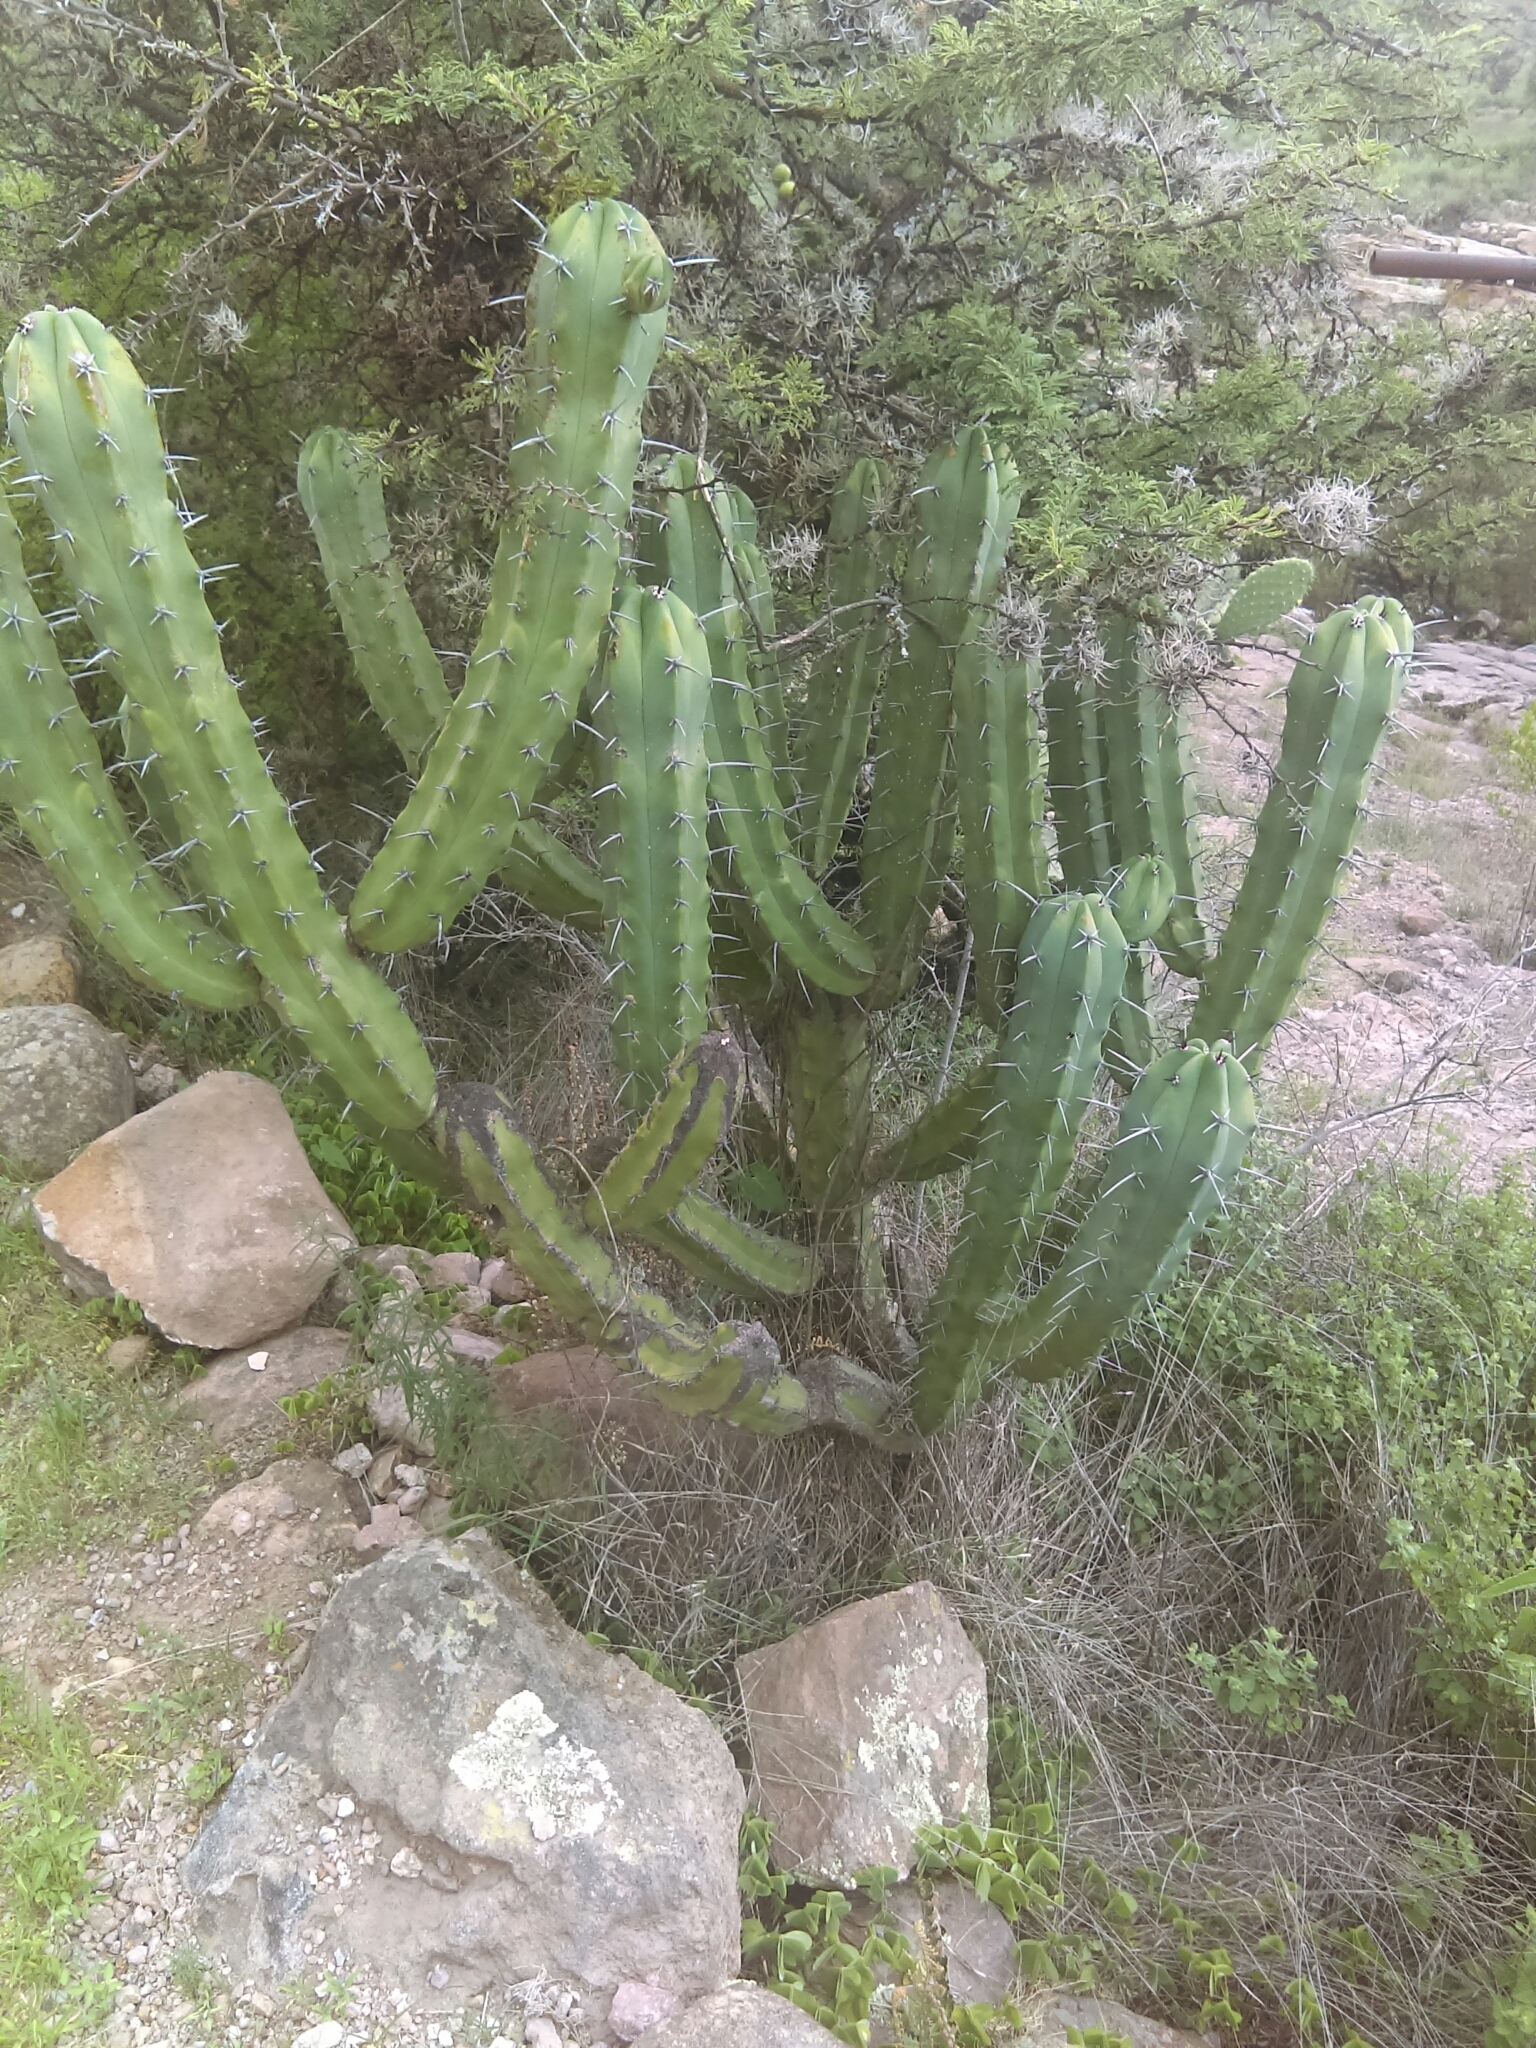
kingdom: Plantae
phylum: Tracheophyta
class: Magnoliopsida
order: Caryophyllales
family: Cactaceae
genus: Myrtillocactus
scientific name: Myrtillocactus geometrizans
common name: Bilberry cactus
